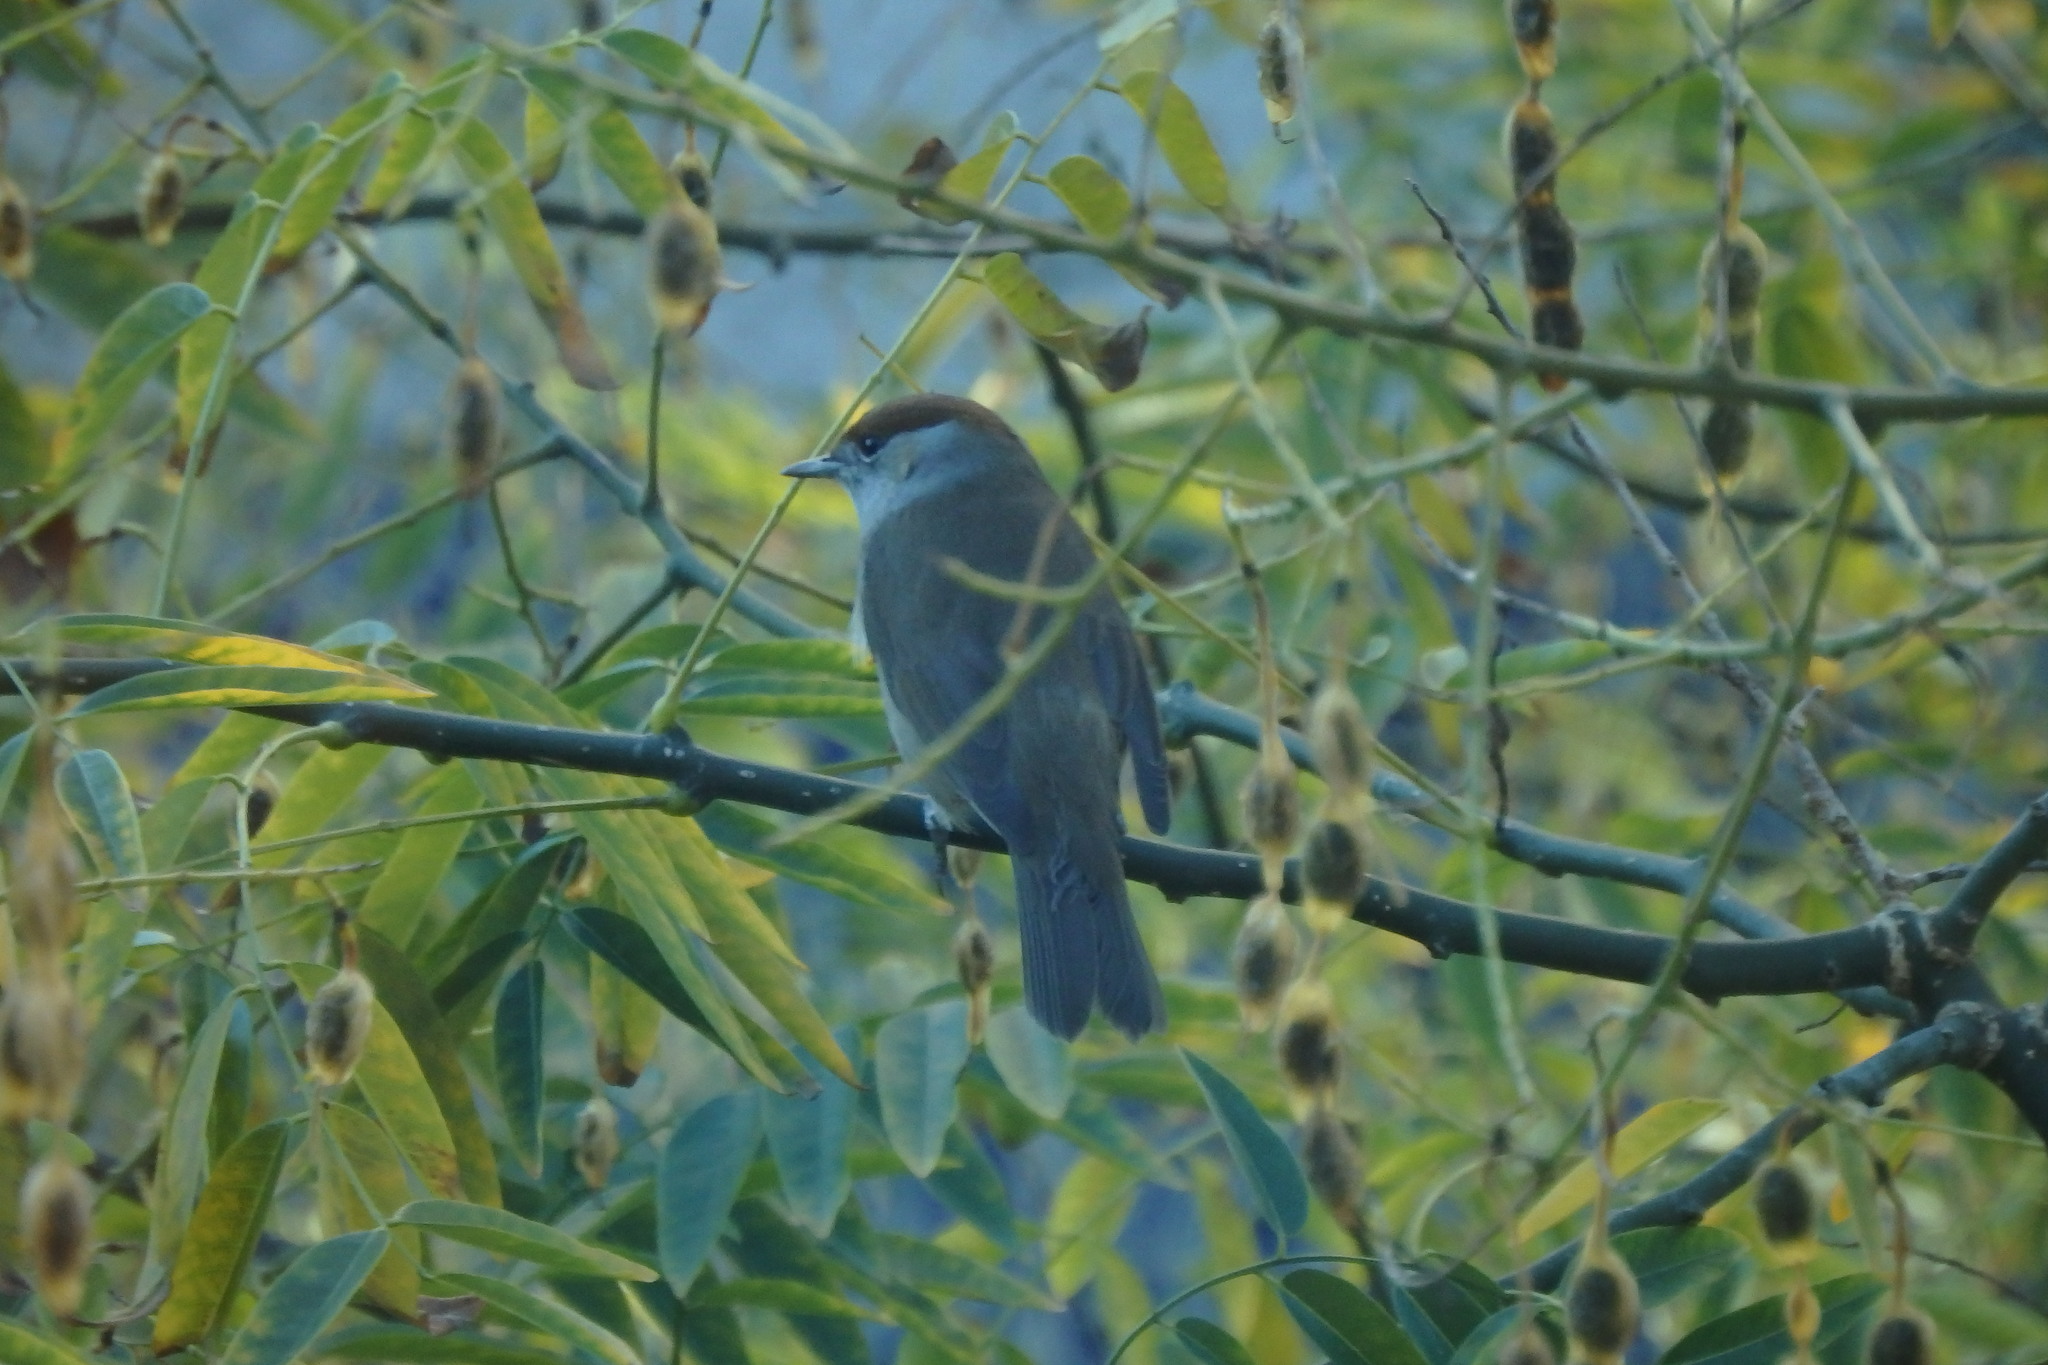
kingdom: Animalia
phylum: Chordata
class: Aves
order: Passeriformes
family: Sylviidae
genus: Sylvia
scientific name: Sylvia atricapilla
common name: Eurasian blackcap
